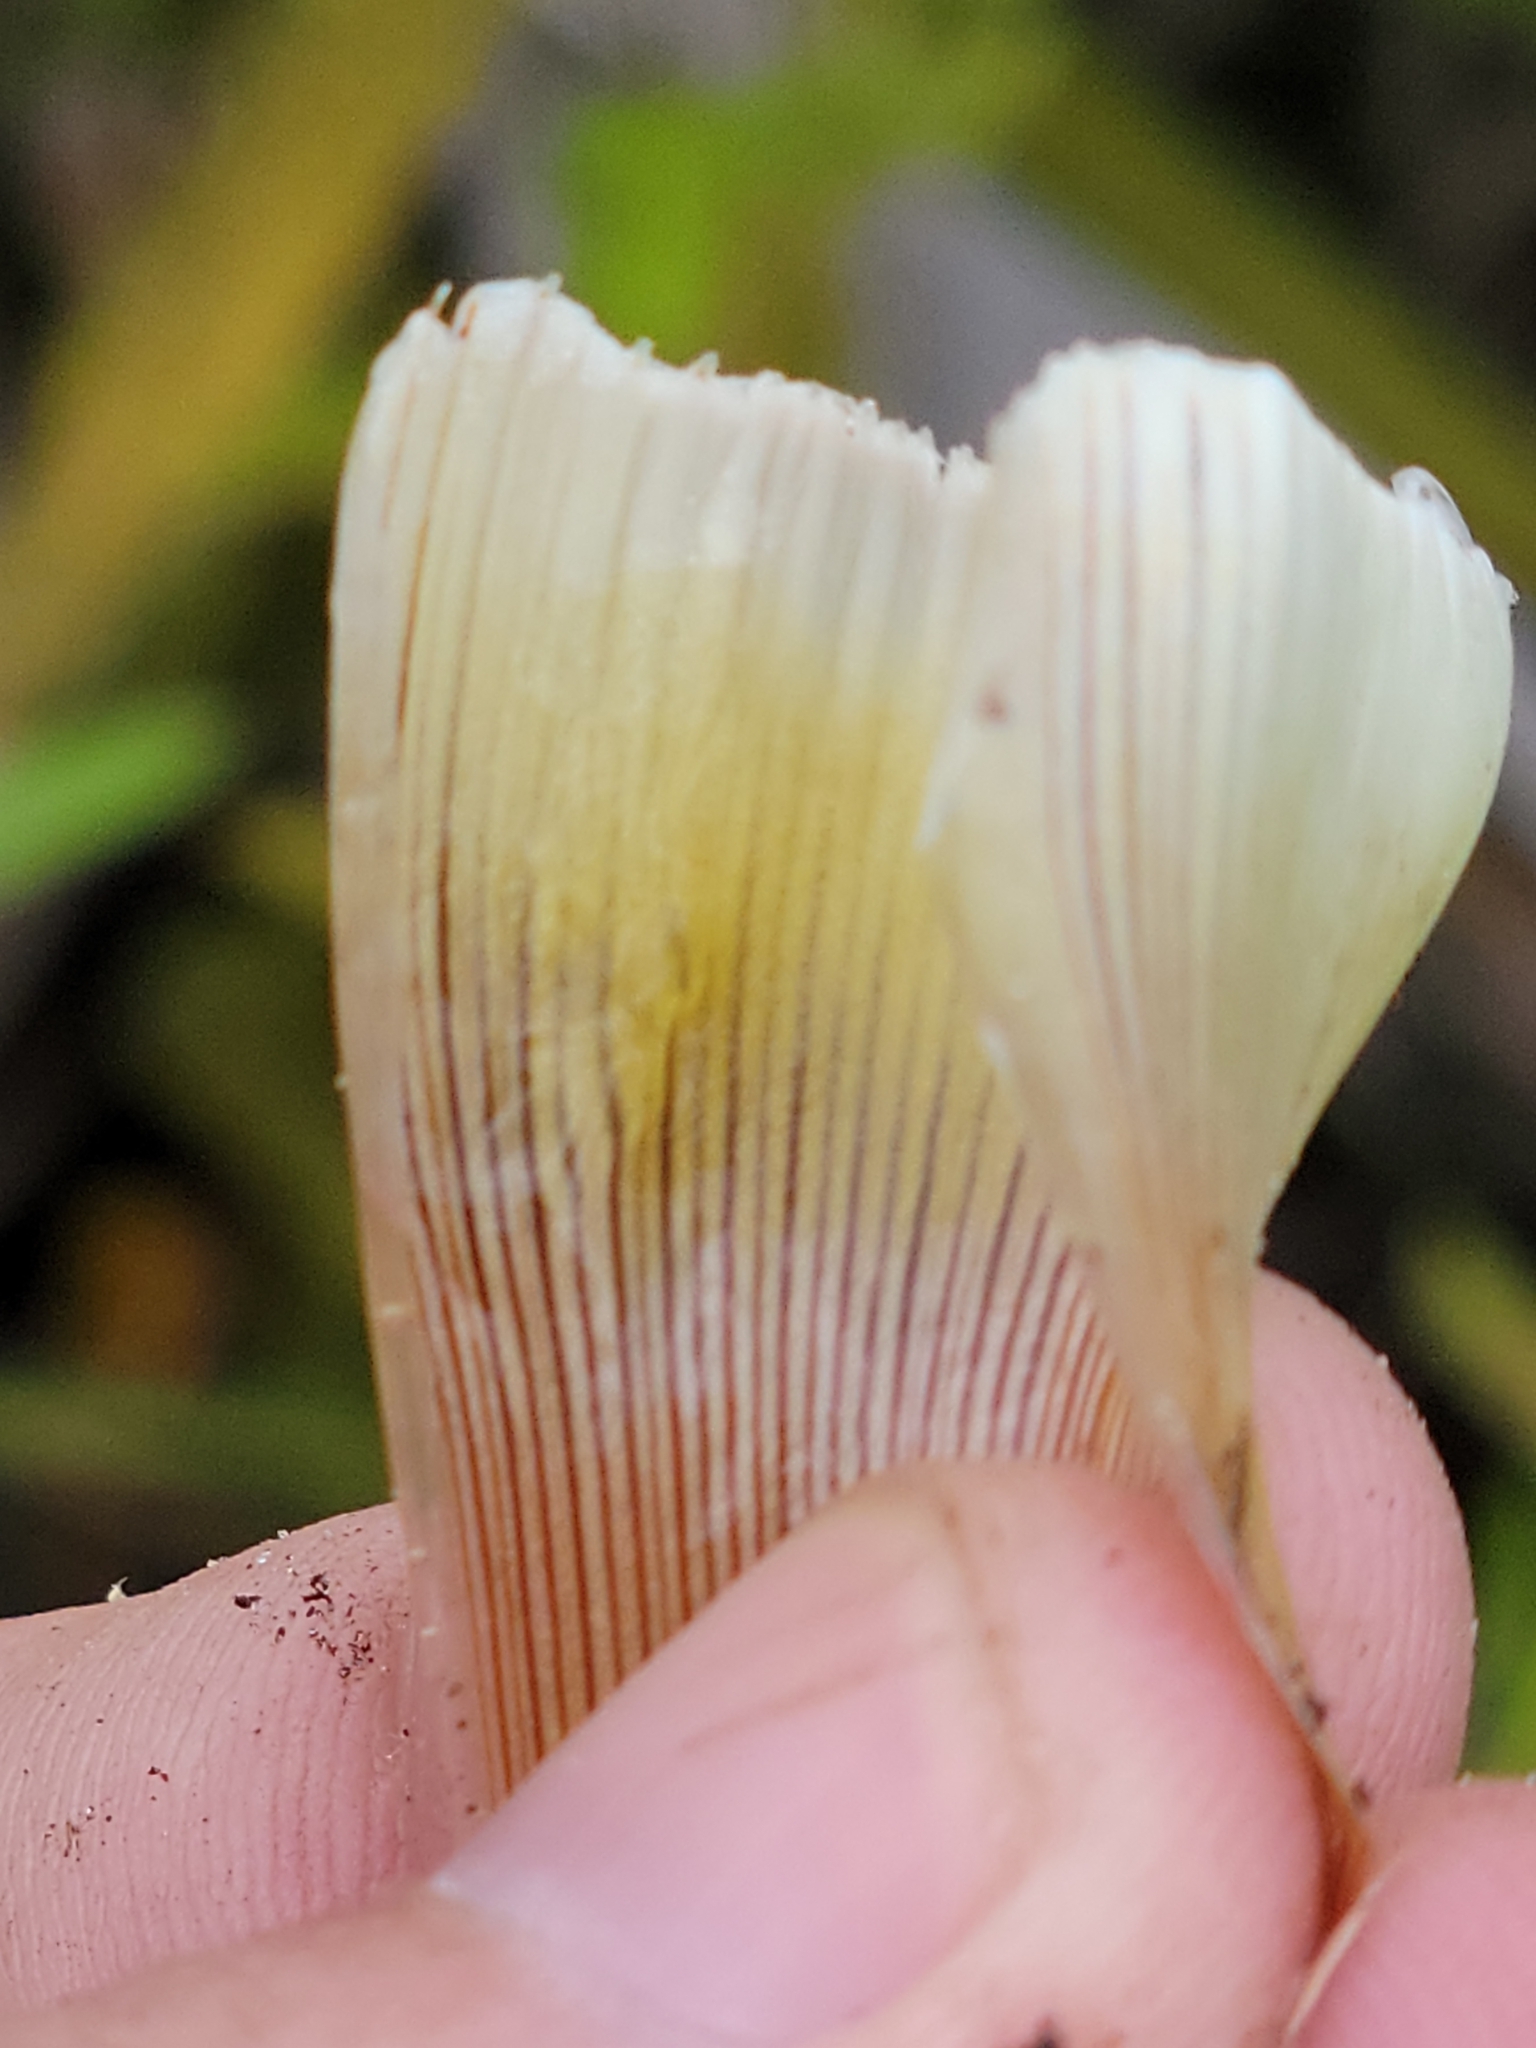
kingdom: Plantae
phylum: Tracheophyta
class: Liliopsida
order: Poales
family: Xyridaceae
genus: Xyris
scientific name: Xyris ambigua
